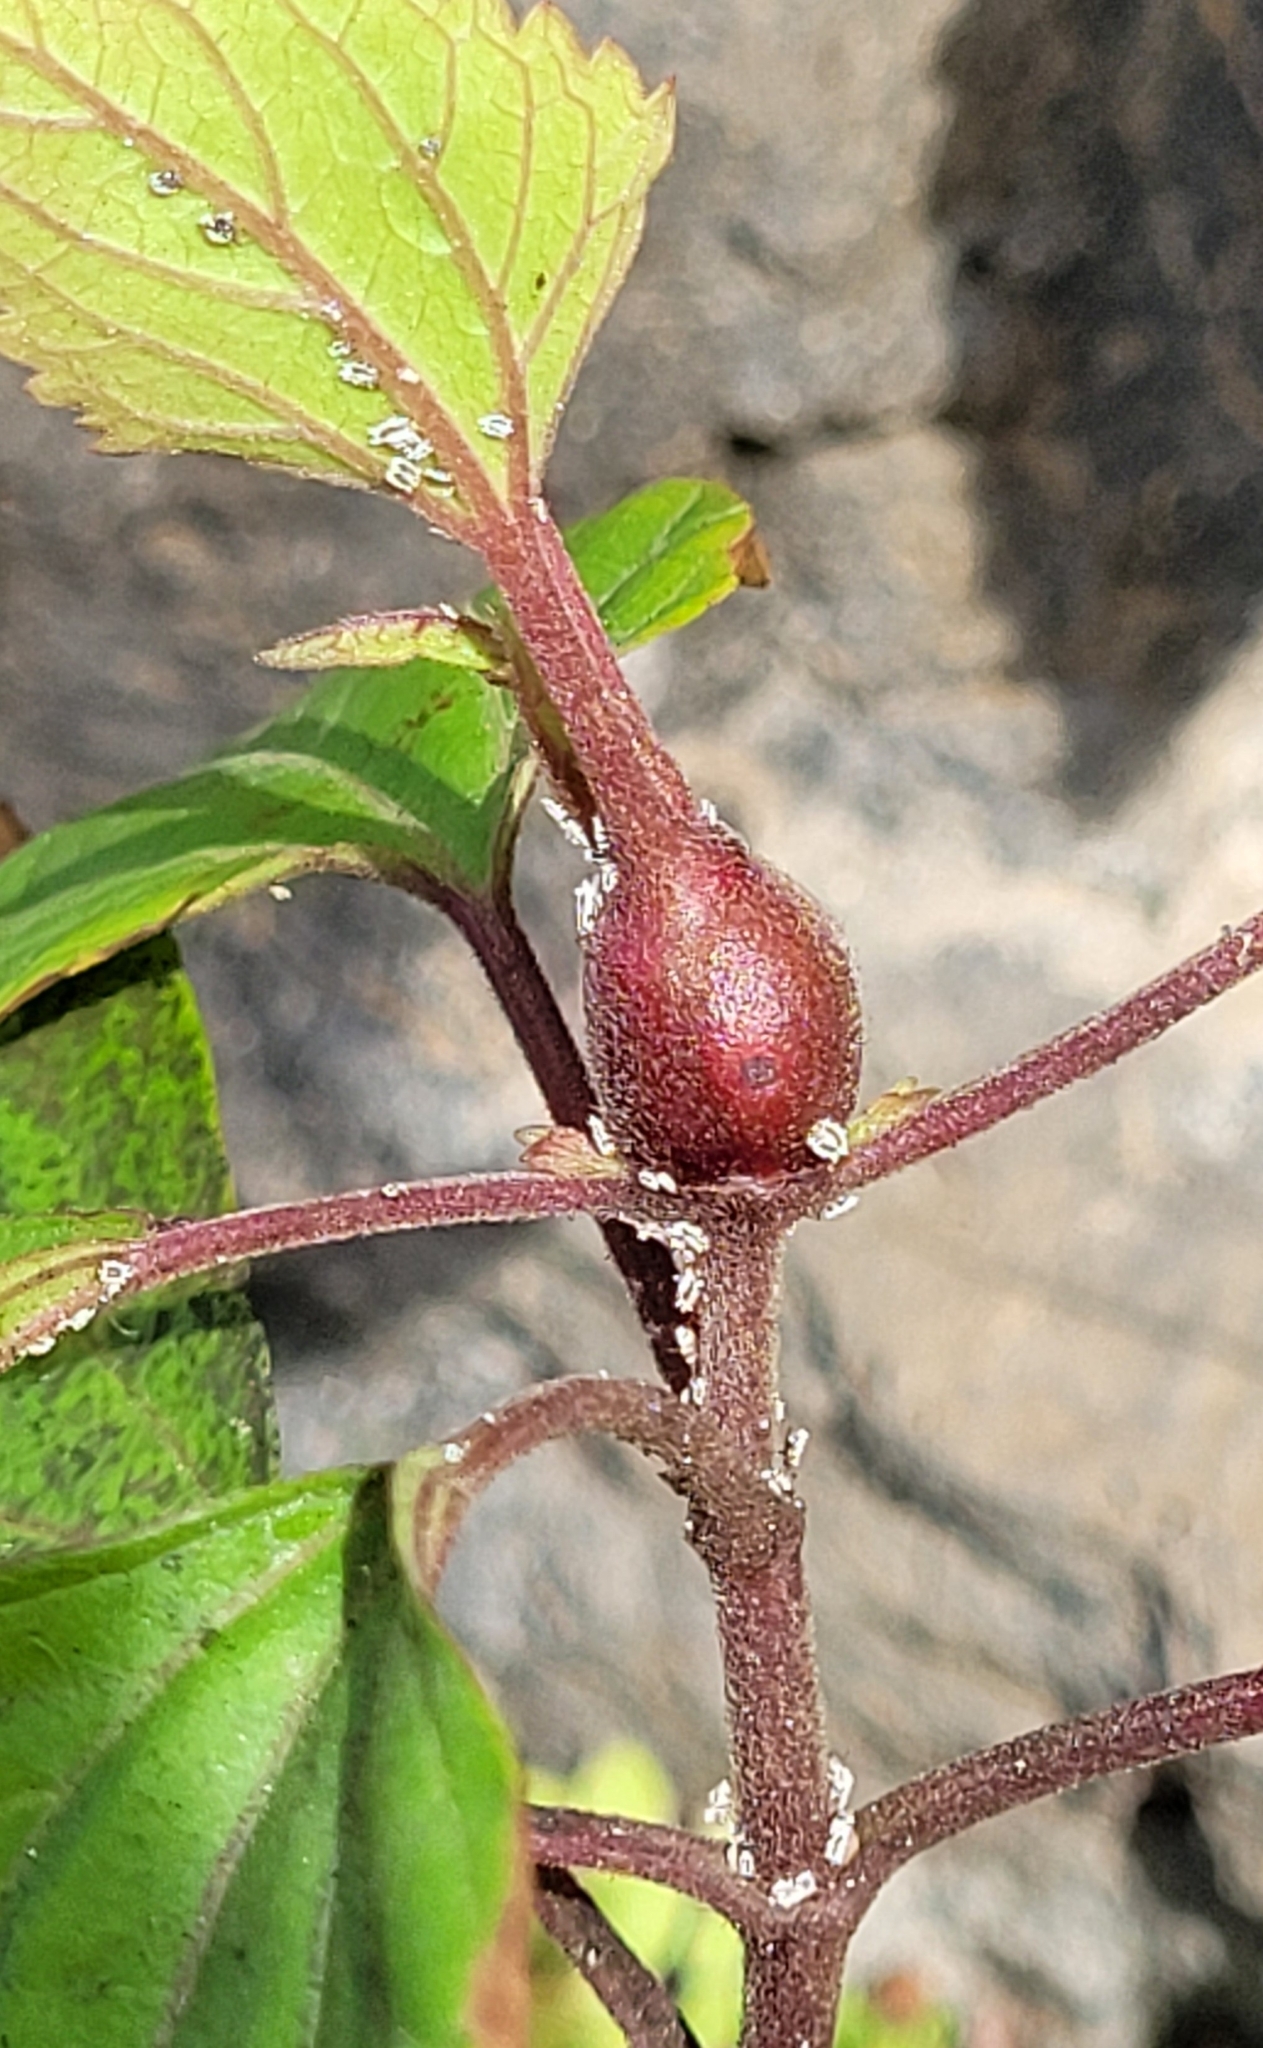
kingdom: Animalia
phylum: Arthropoda
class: Insecta
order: Diptera
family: Tephritidae
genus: Procecidochares
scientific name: Procecidochares utilis
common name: Eupatorium gall fly
